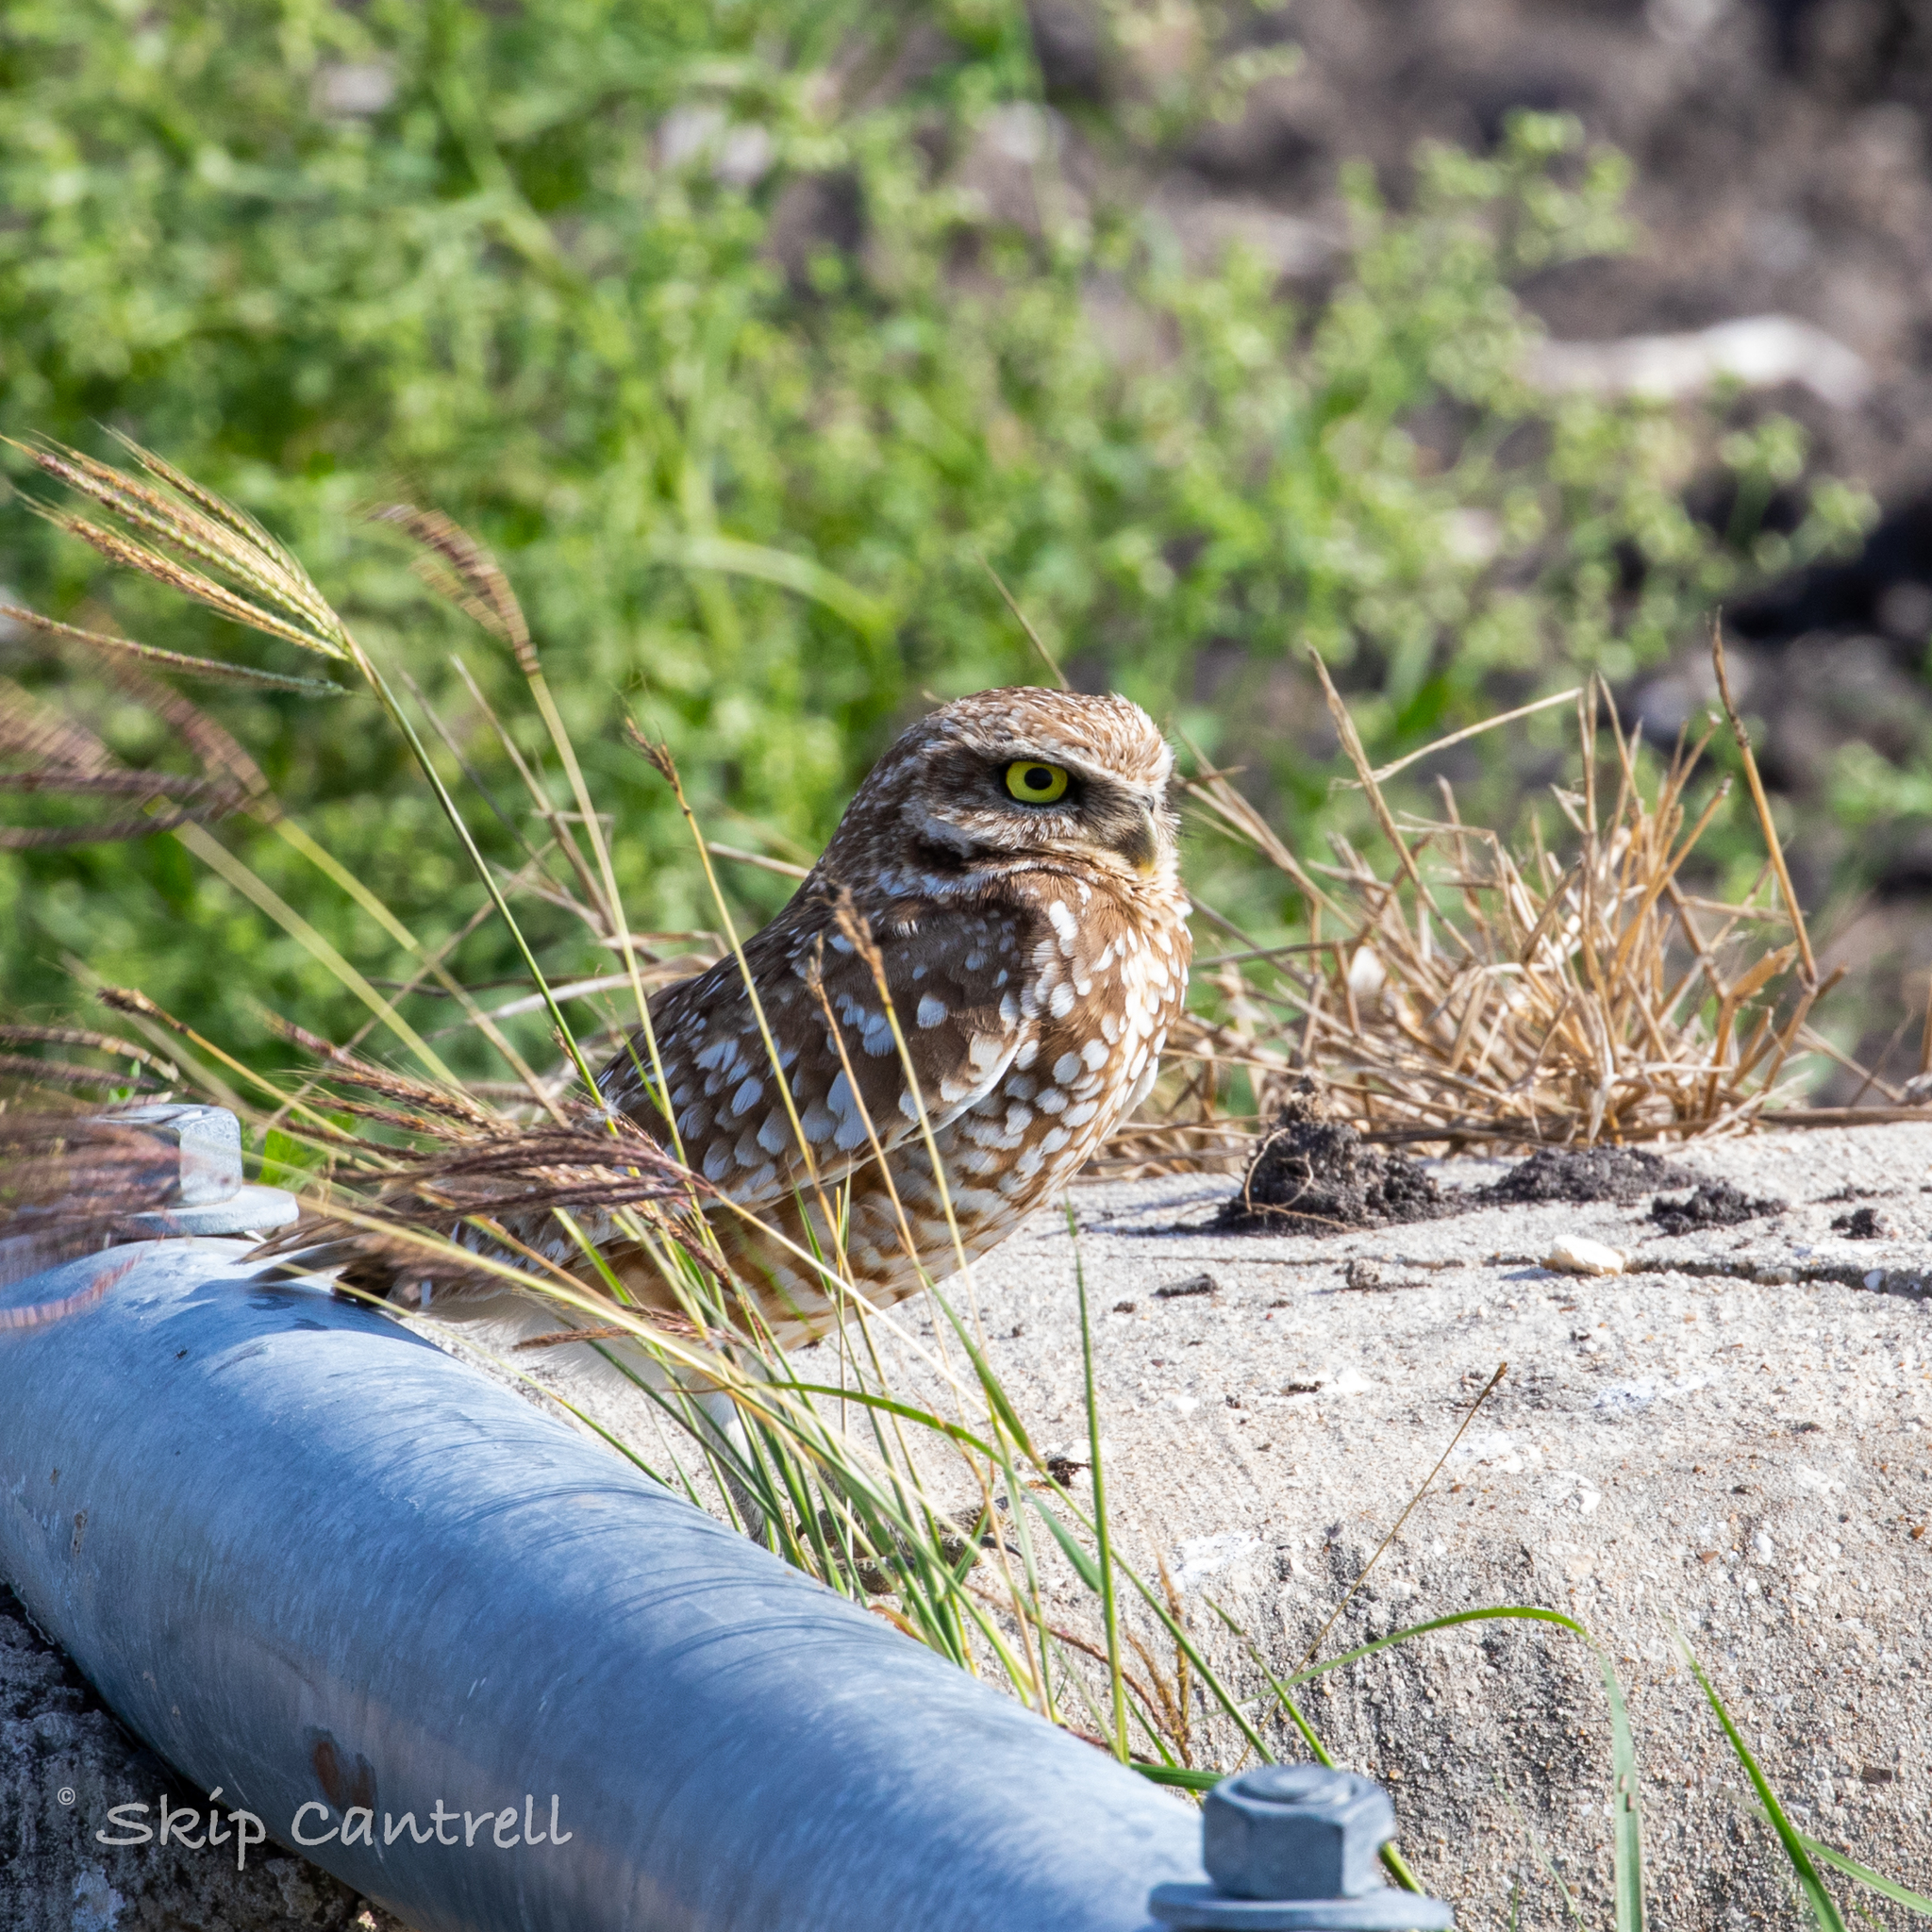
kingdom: Animalia
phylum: Chordata
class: Aves
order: Strigiformes
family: Strigidae
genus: Athene
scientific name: Athene cunicularia
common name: Burrowing owl
